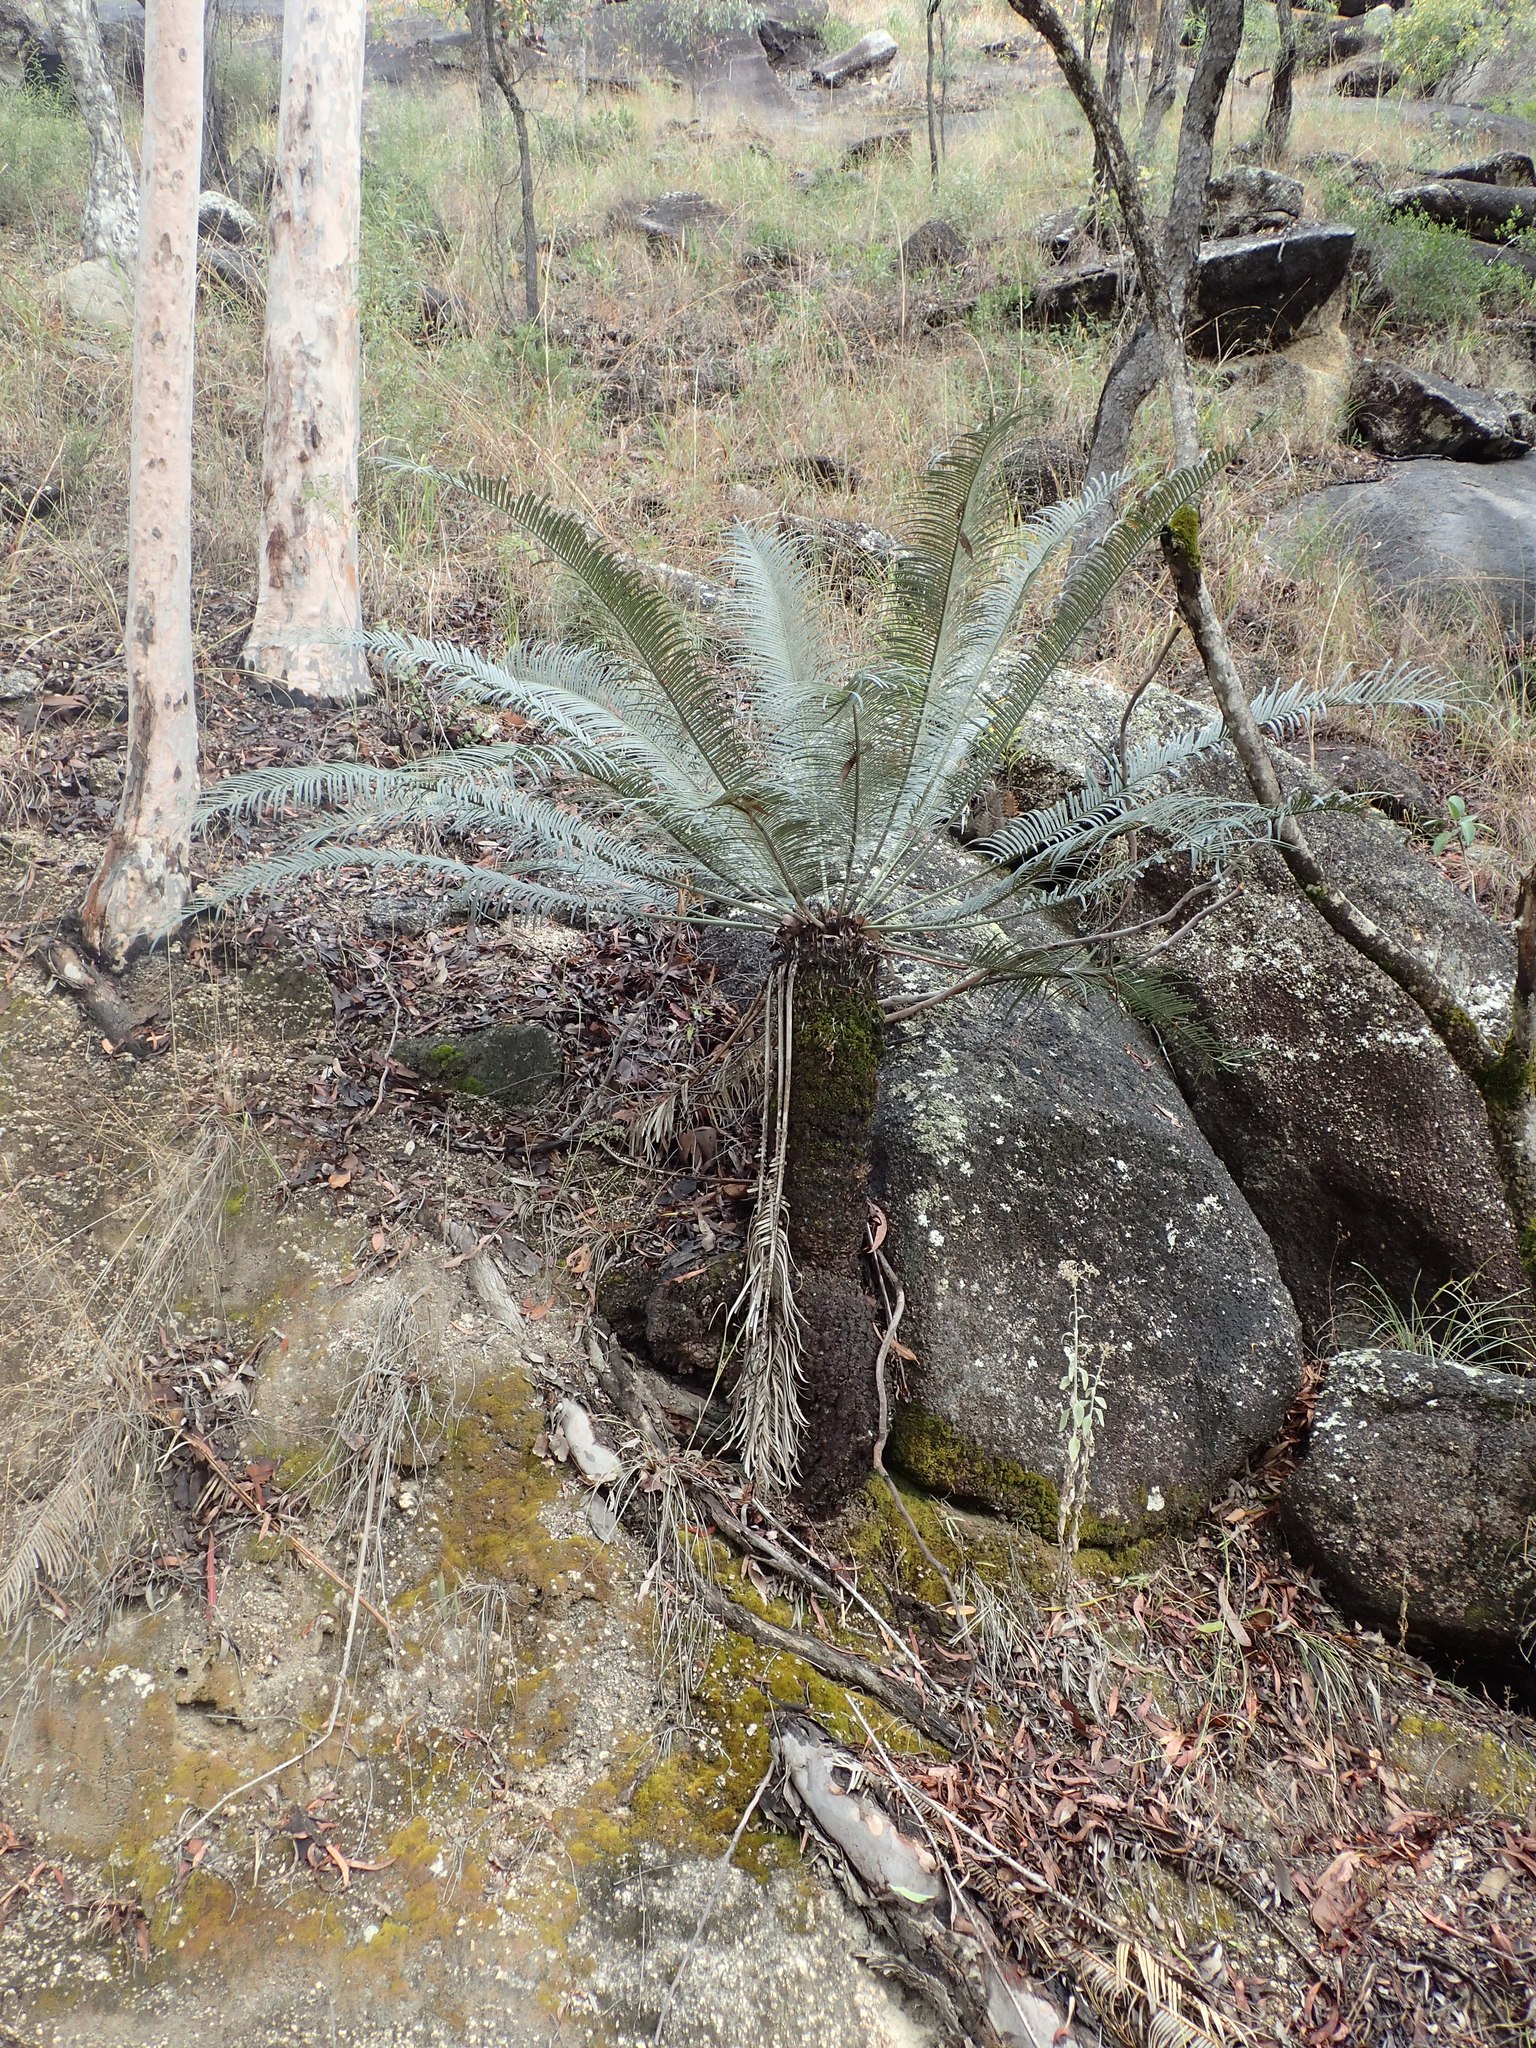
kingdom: Plantae
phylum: Tracheophyta
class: Cycadopsida
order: Cycadales
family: Cycadaceae
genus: Cycas
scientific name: Cycas media
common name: Queensland cycas
